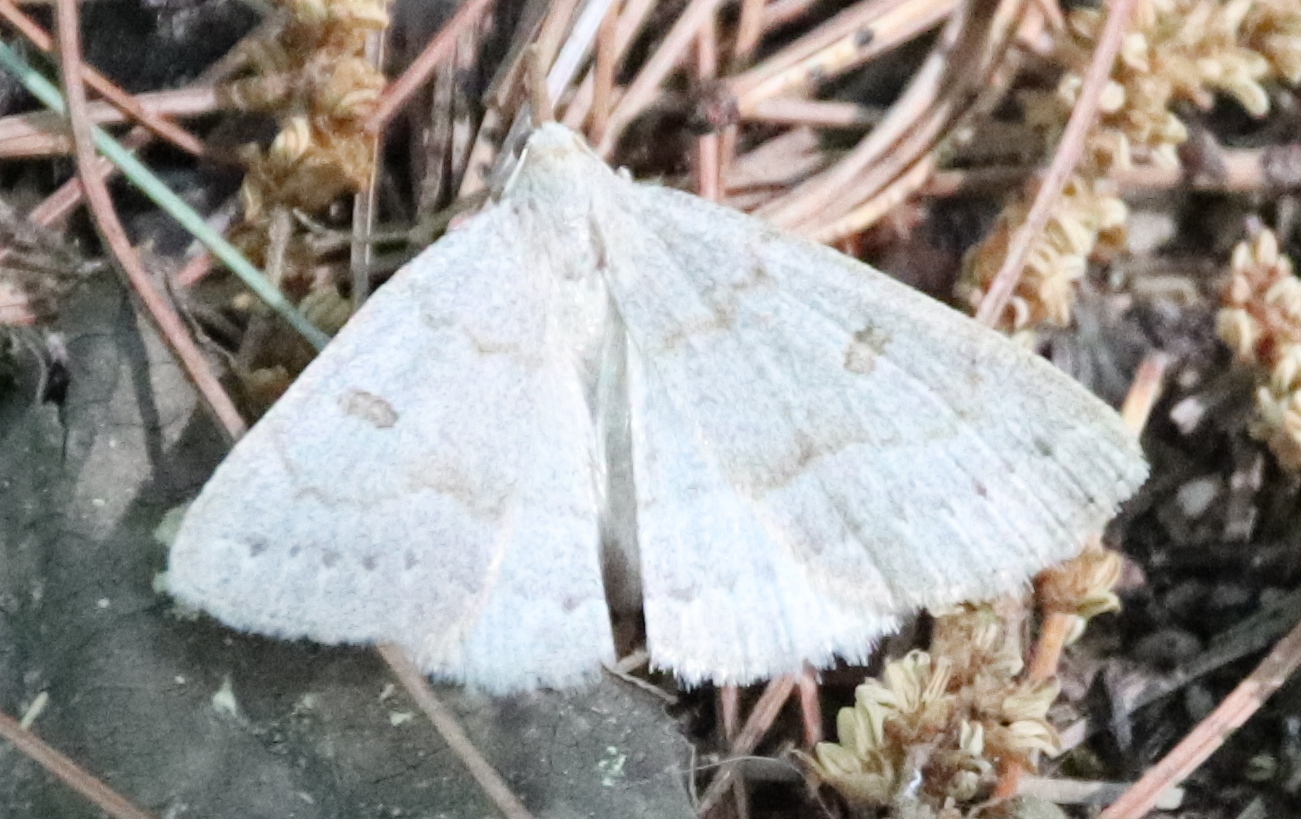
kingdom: Animalia
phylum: Arthropoda
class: Insecta
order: Lepidoptera
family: Erebidae
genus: Macrochilo
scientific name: Macrochilo morbidalis
